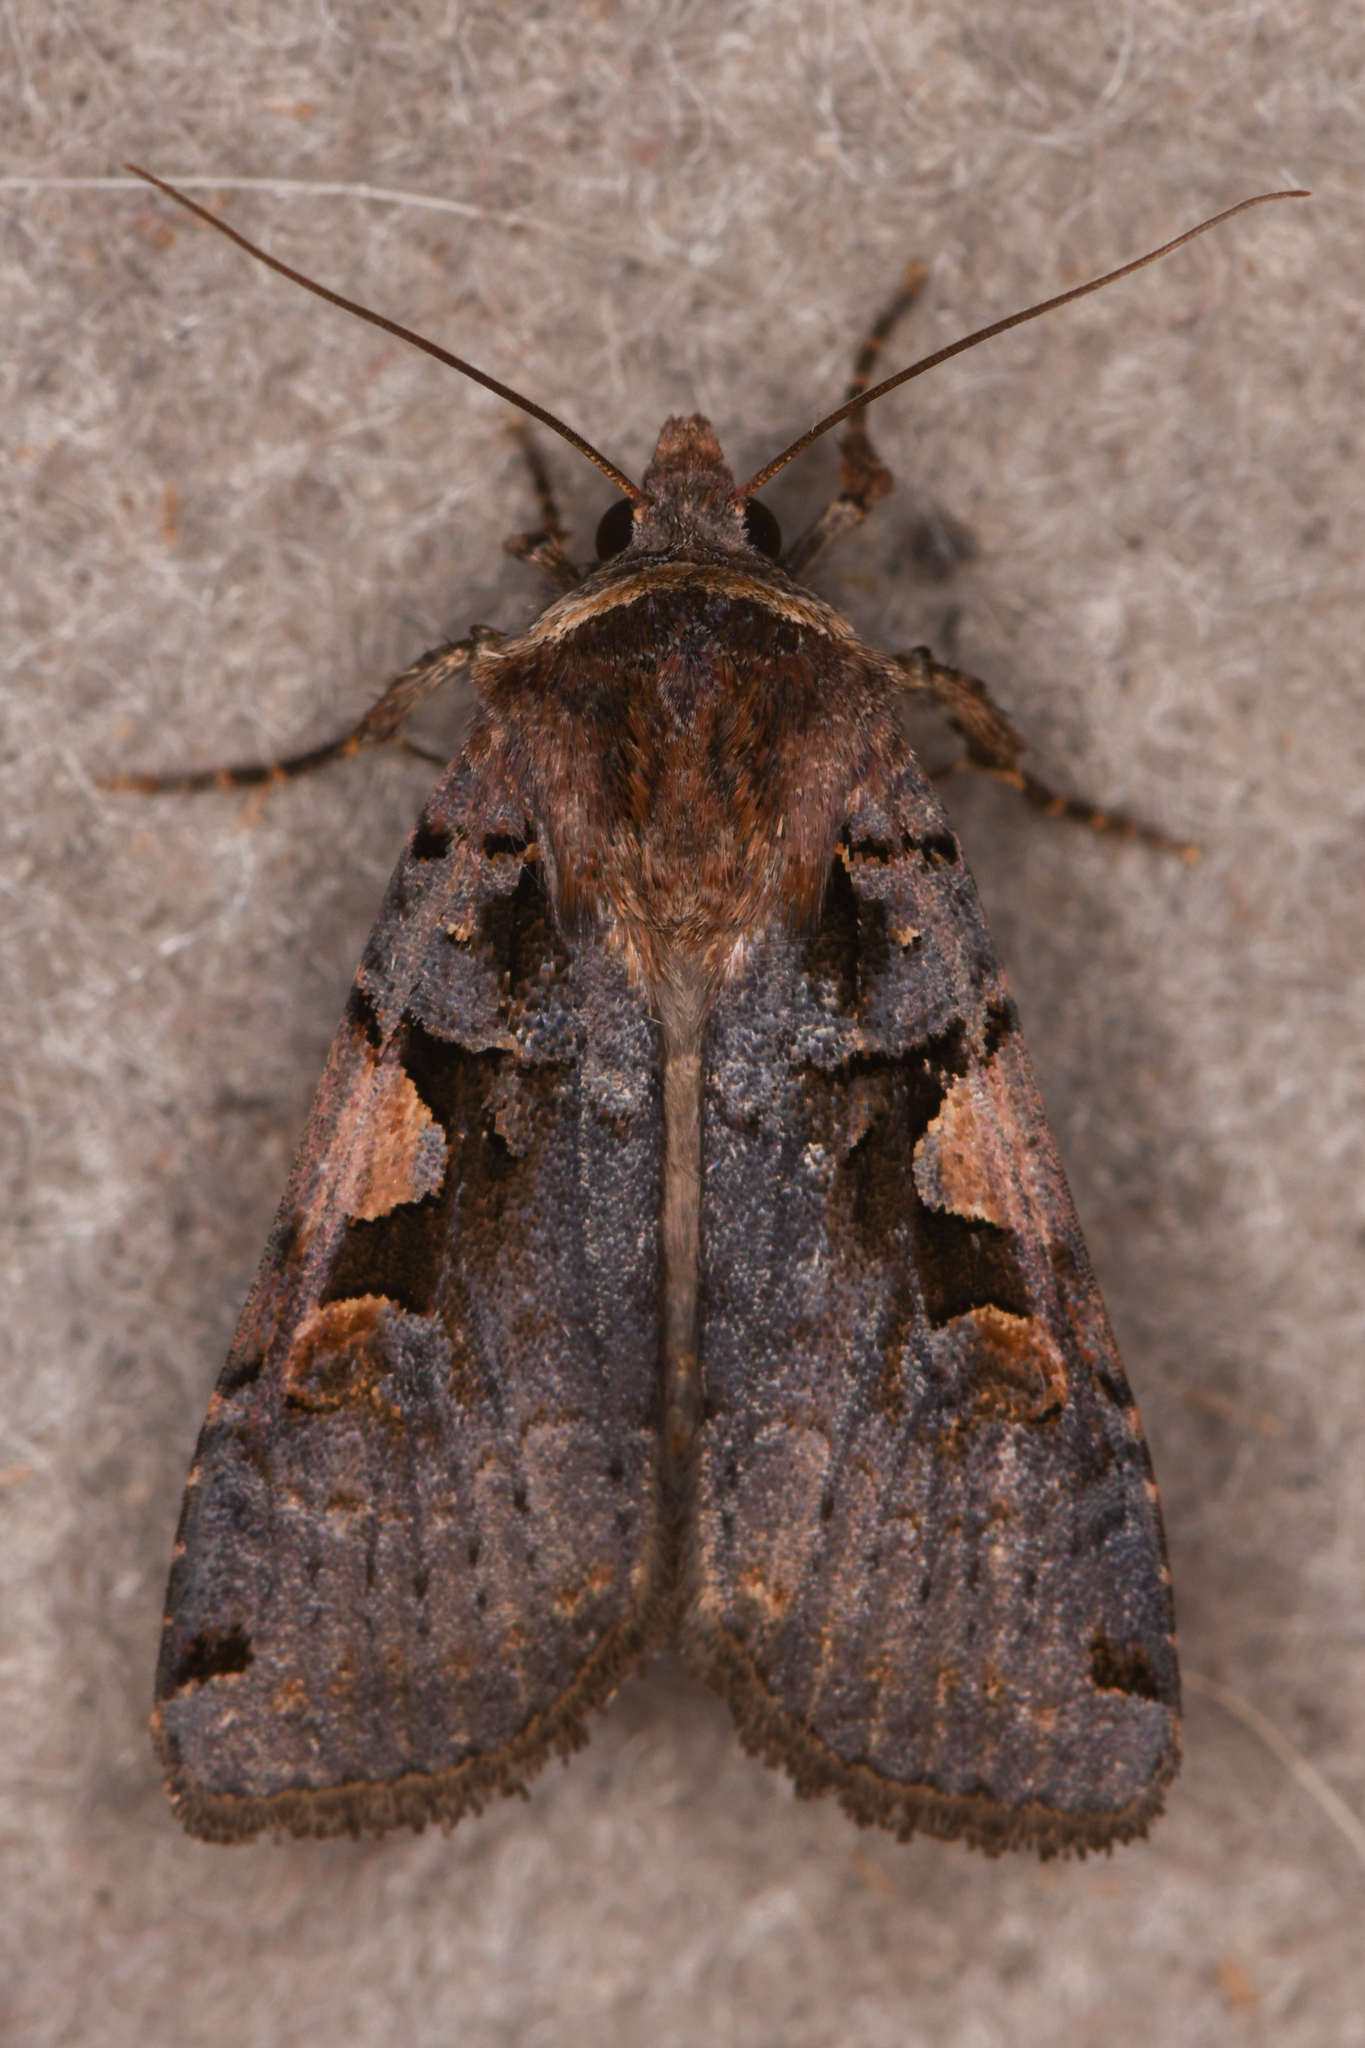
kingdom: Animalia
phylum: Arthropoda
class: Insecta
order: Lepidoptera
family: Noctuidae
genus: Xestia
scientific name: Xestia c-nigrum
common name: Setaceous hebrew character
